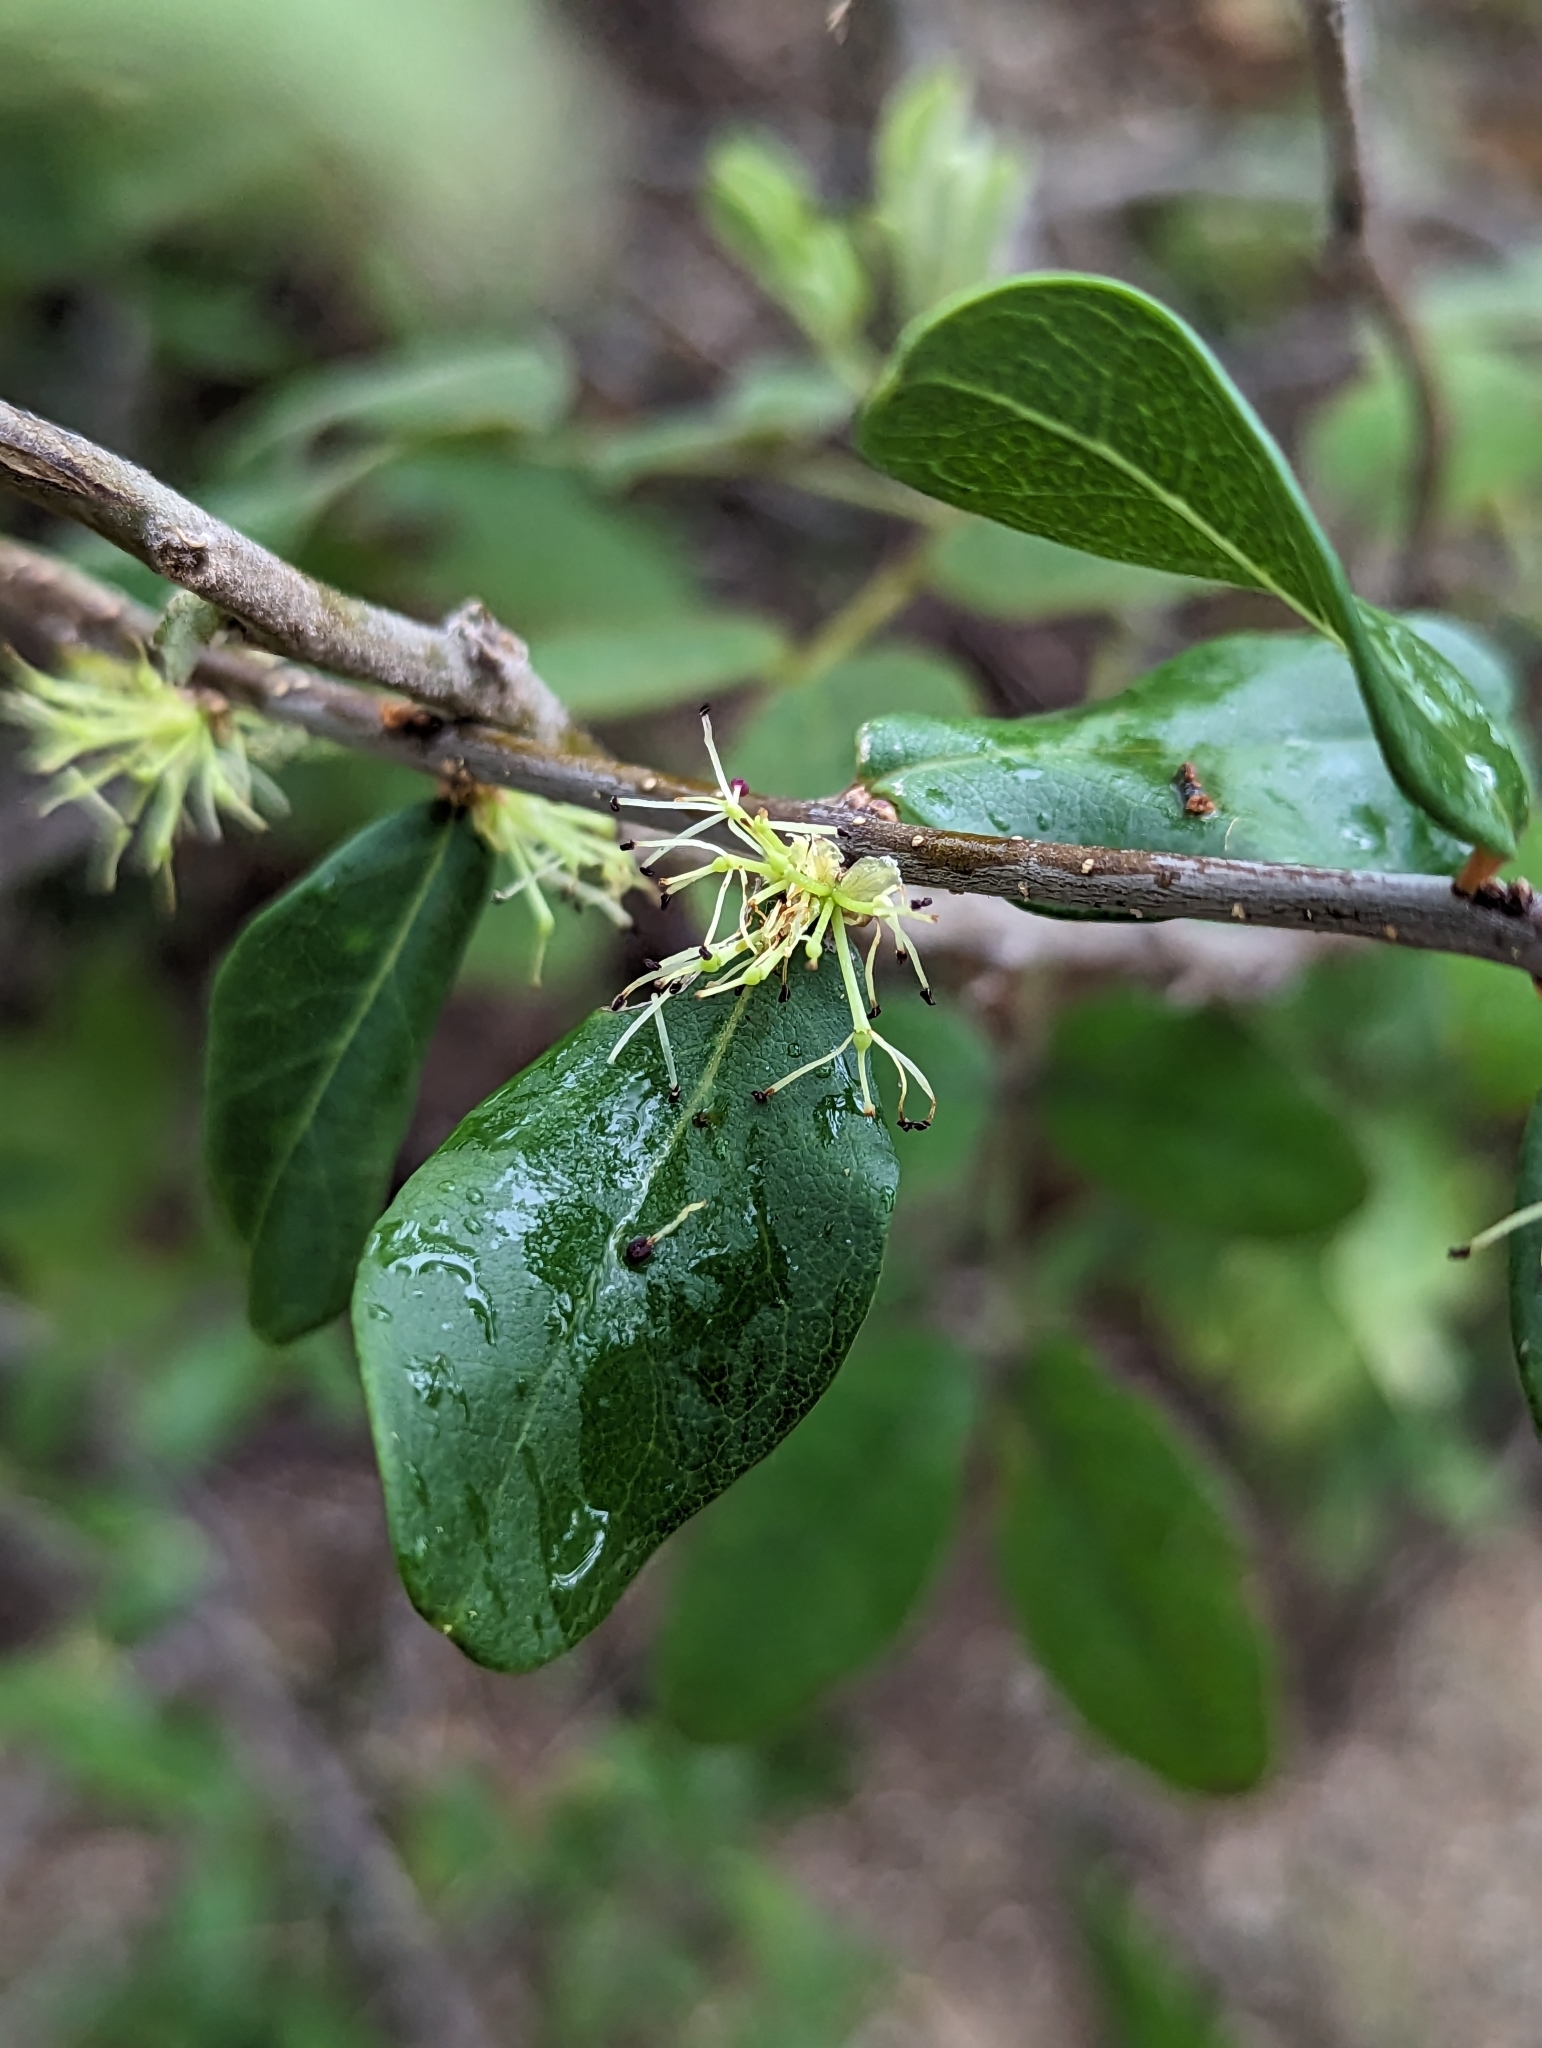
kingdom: Plantae
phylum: Tracheophyta
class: Magnoliopsida
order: Lamiales
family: Oleaceae
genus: Forestiera
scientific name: Forestiera macrocarpa
